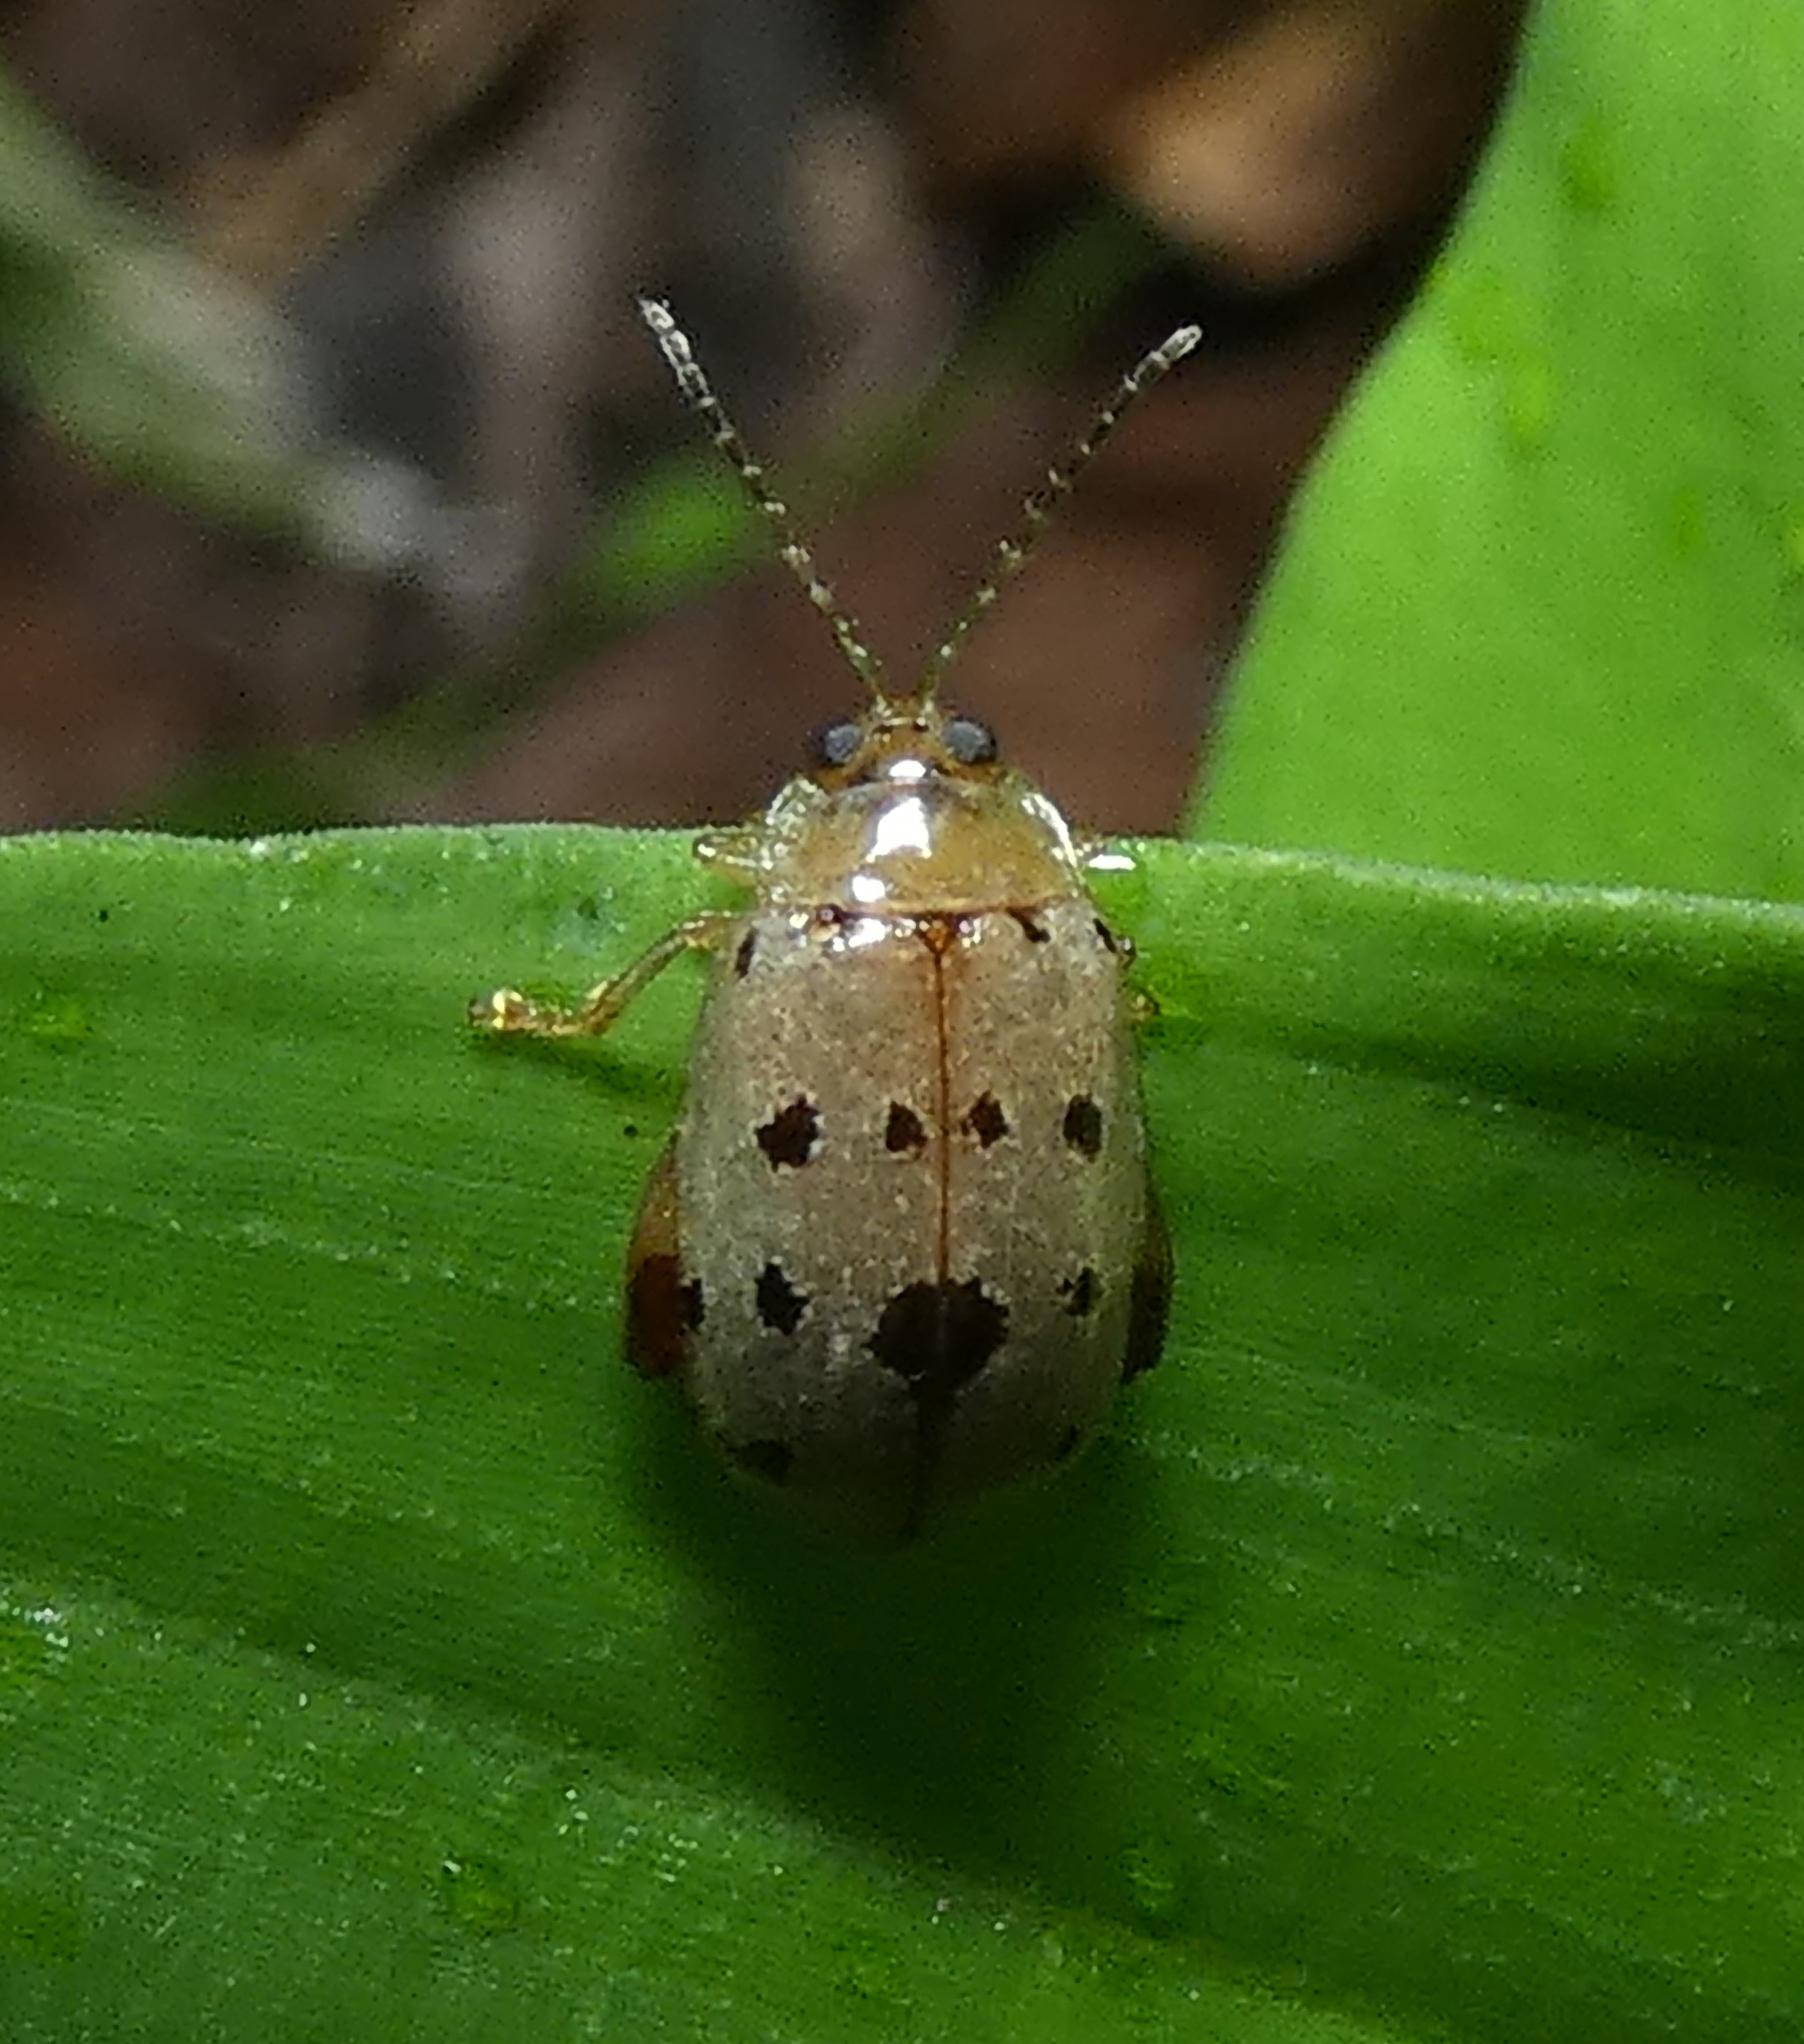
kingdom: Animalia
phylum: Arthropoda
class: Insecta
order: Coleoptera
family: Chrysomelidae
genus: Alagoasa
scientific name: Alagoasa
